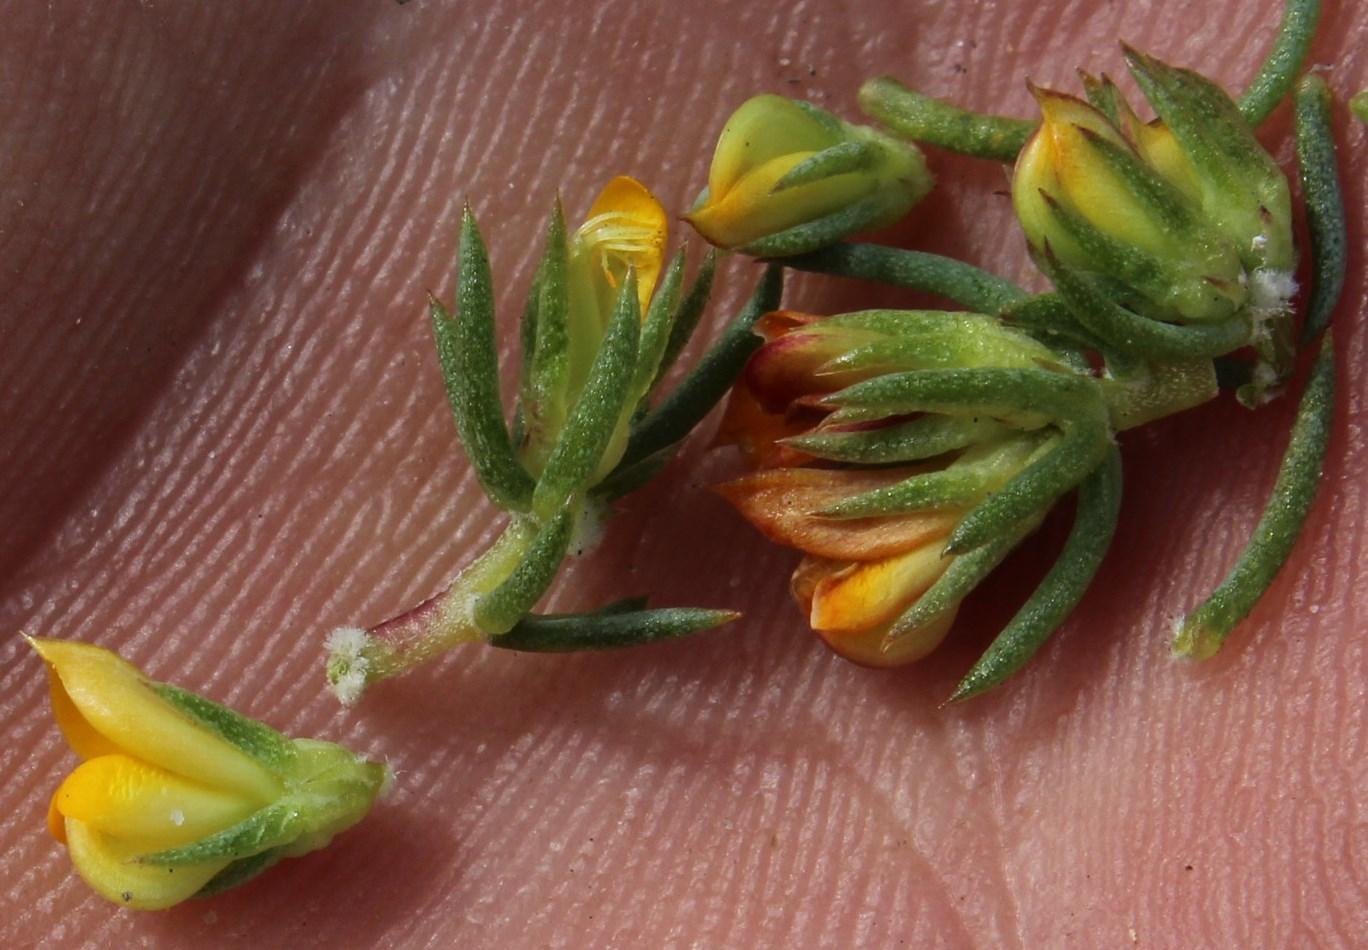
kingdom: Plantae
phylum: Tracheophyta
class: Magnoliopsida
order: Fabales
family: Fabaceae
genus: Aspalathus
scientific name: Aspalathus juniperina
